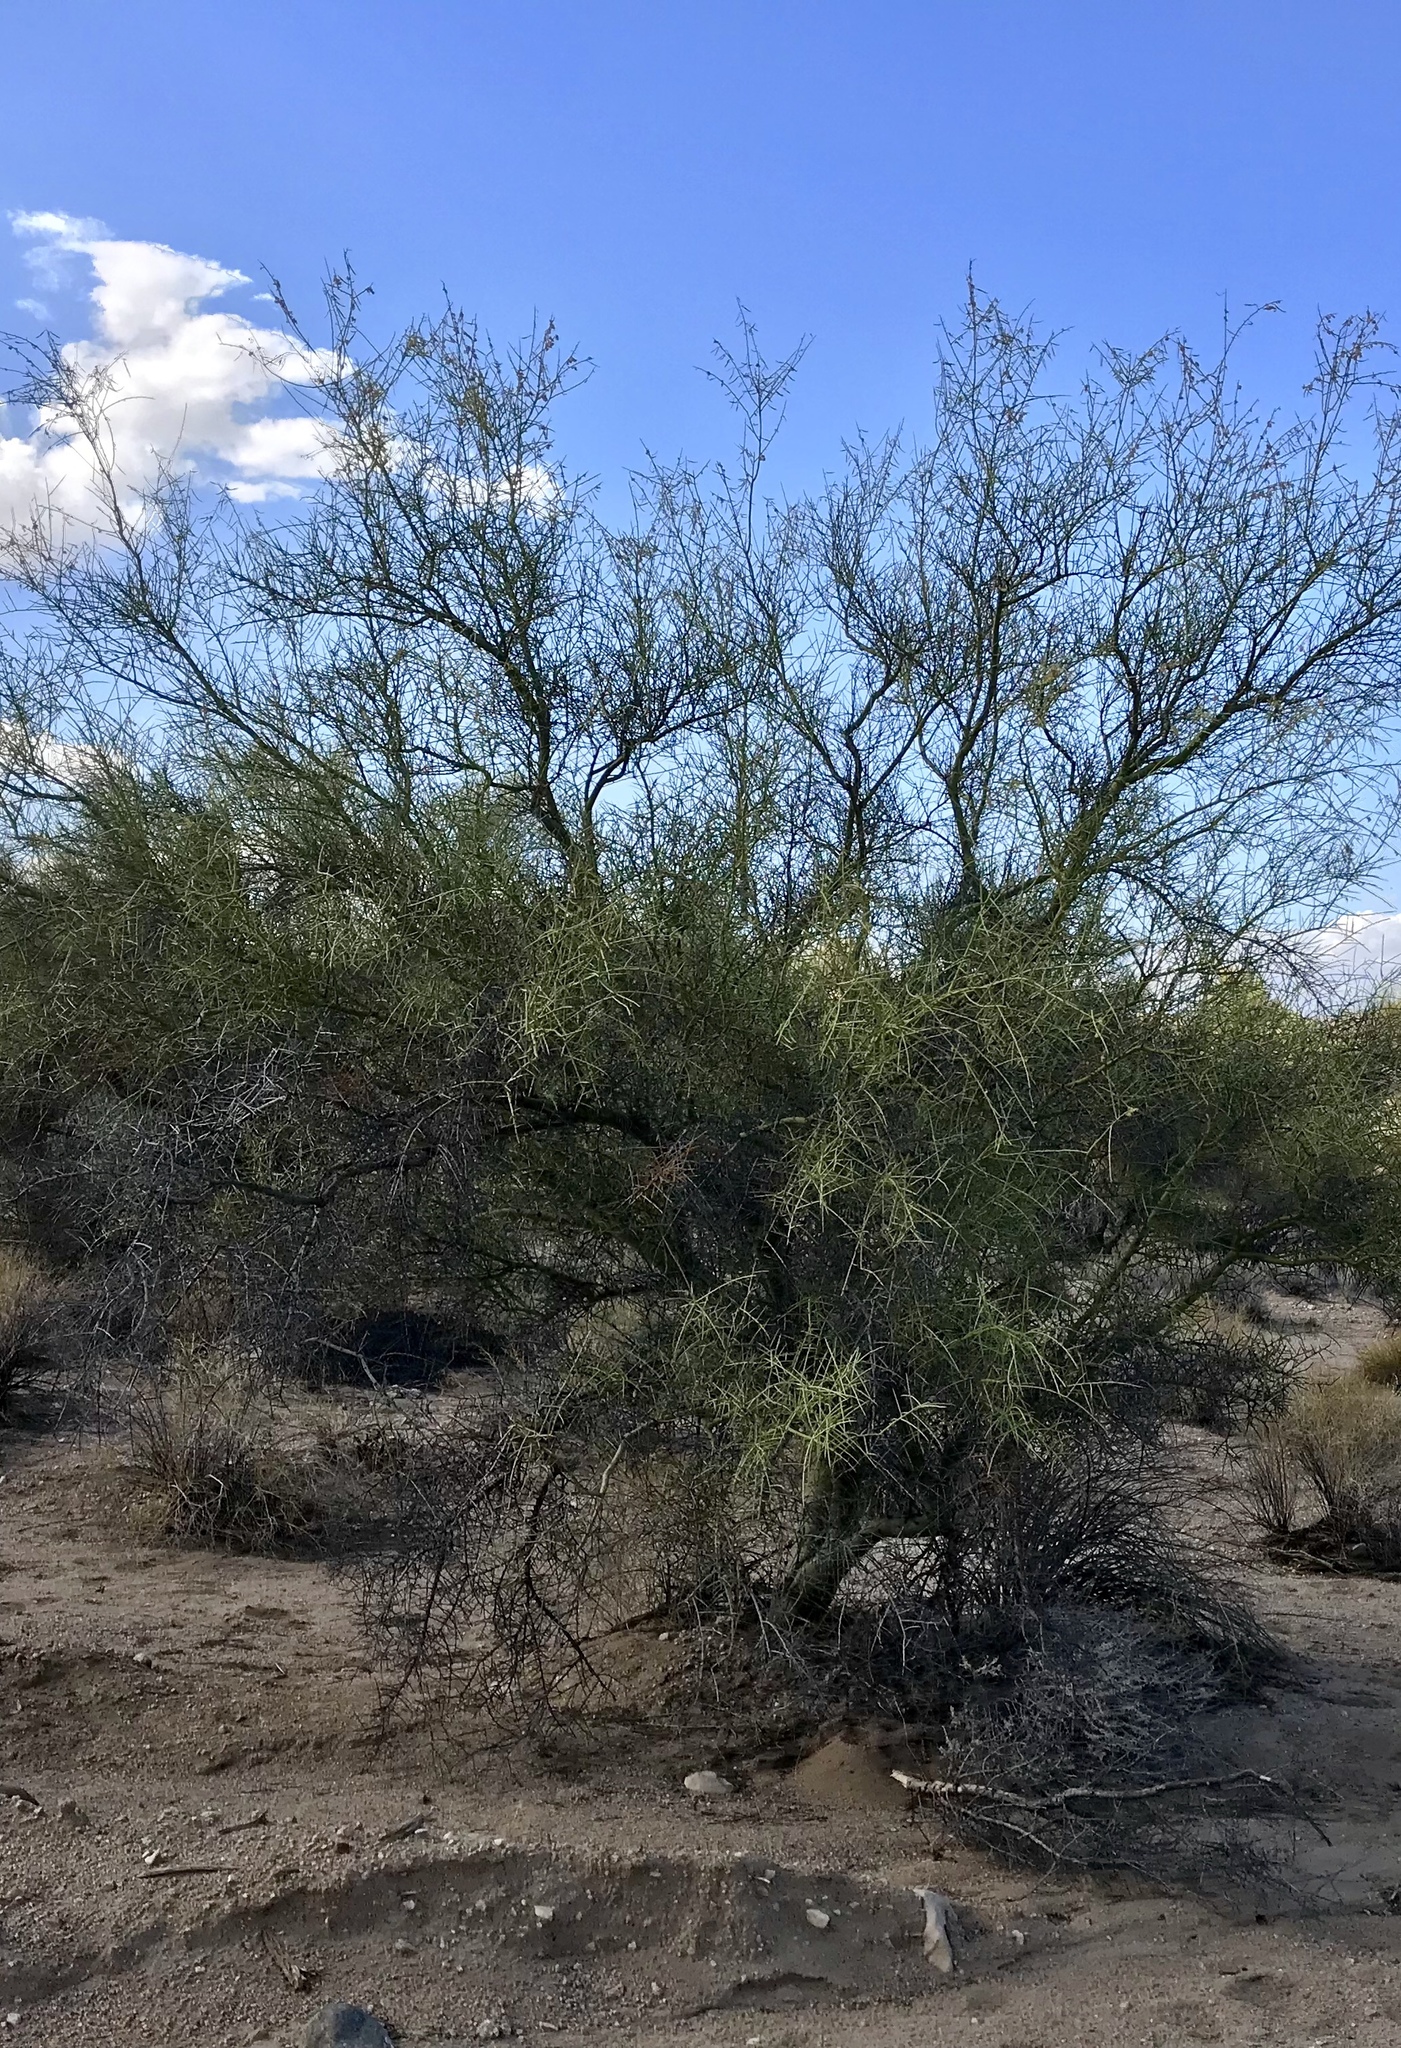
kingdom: Plantae
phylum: Tracheophyta
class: Magnoliopsida
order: Fabales
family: Fabaceae
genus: Parkinsonia
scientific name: Parkinsonia microphylla
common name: Yellow paloverde
